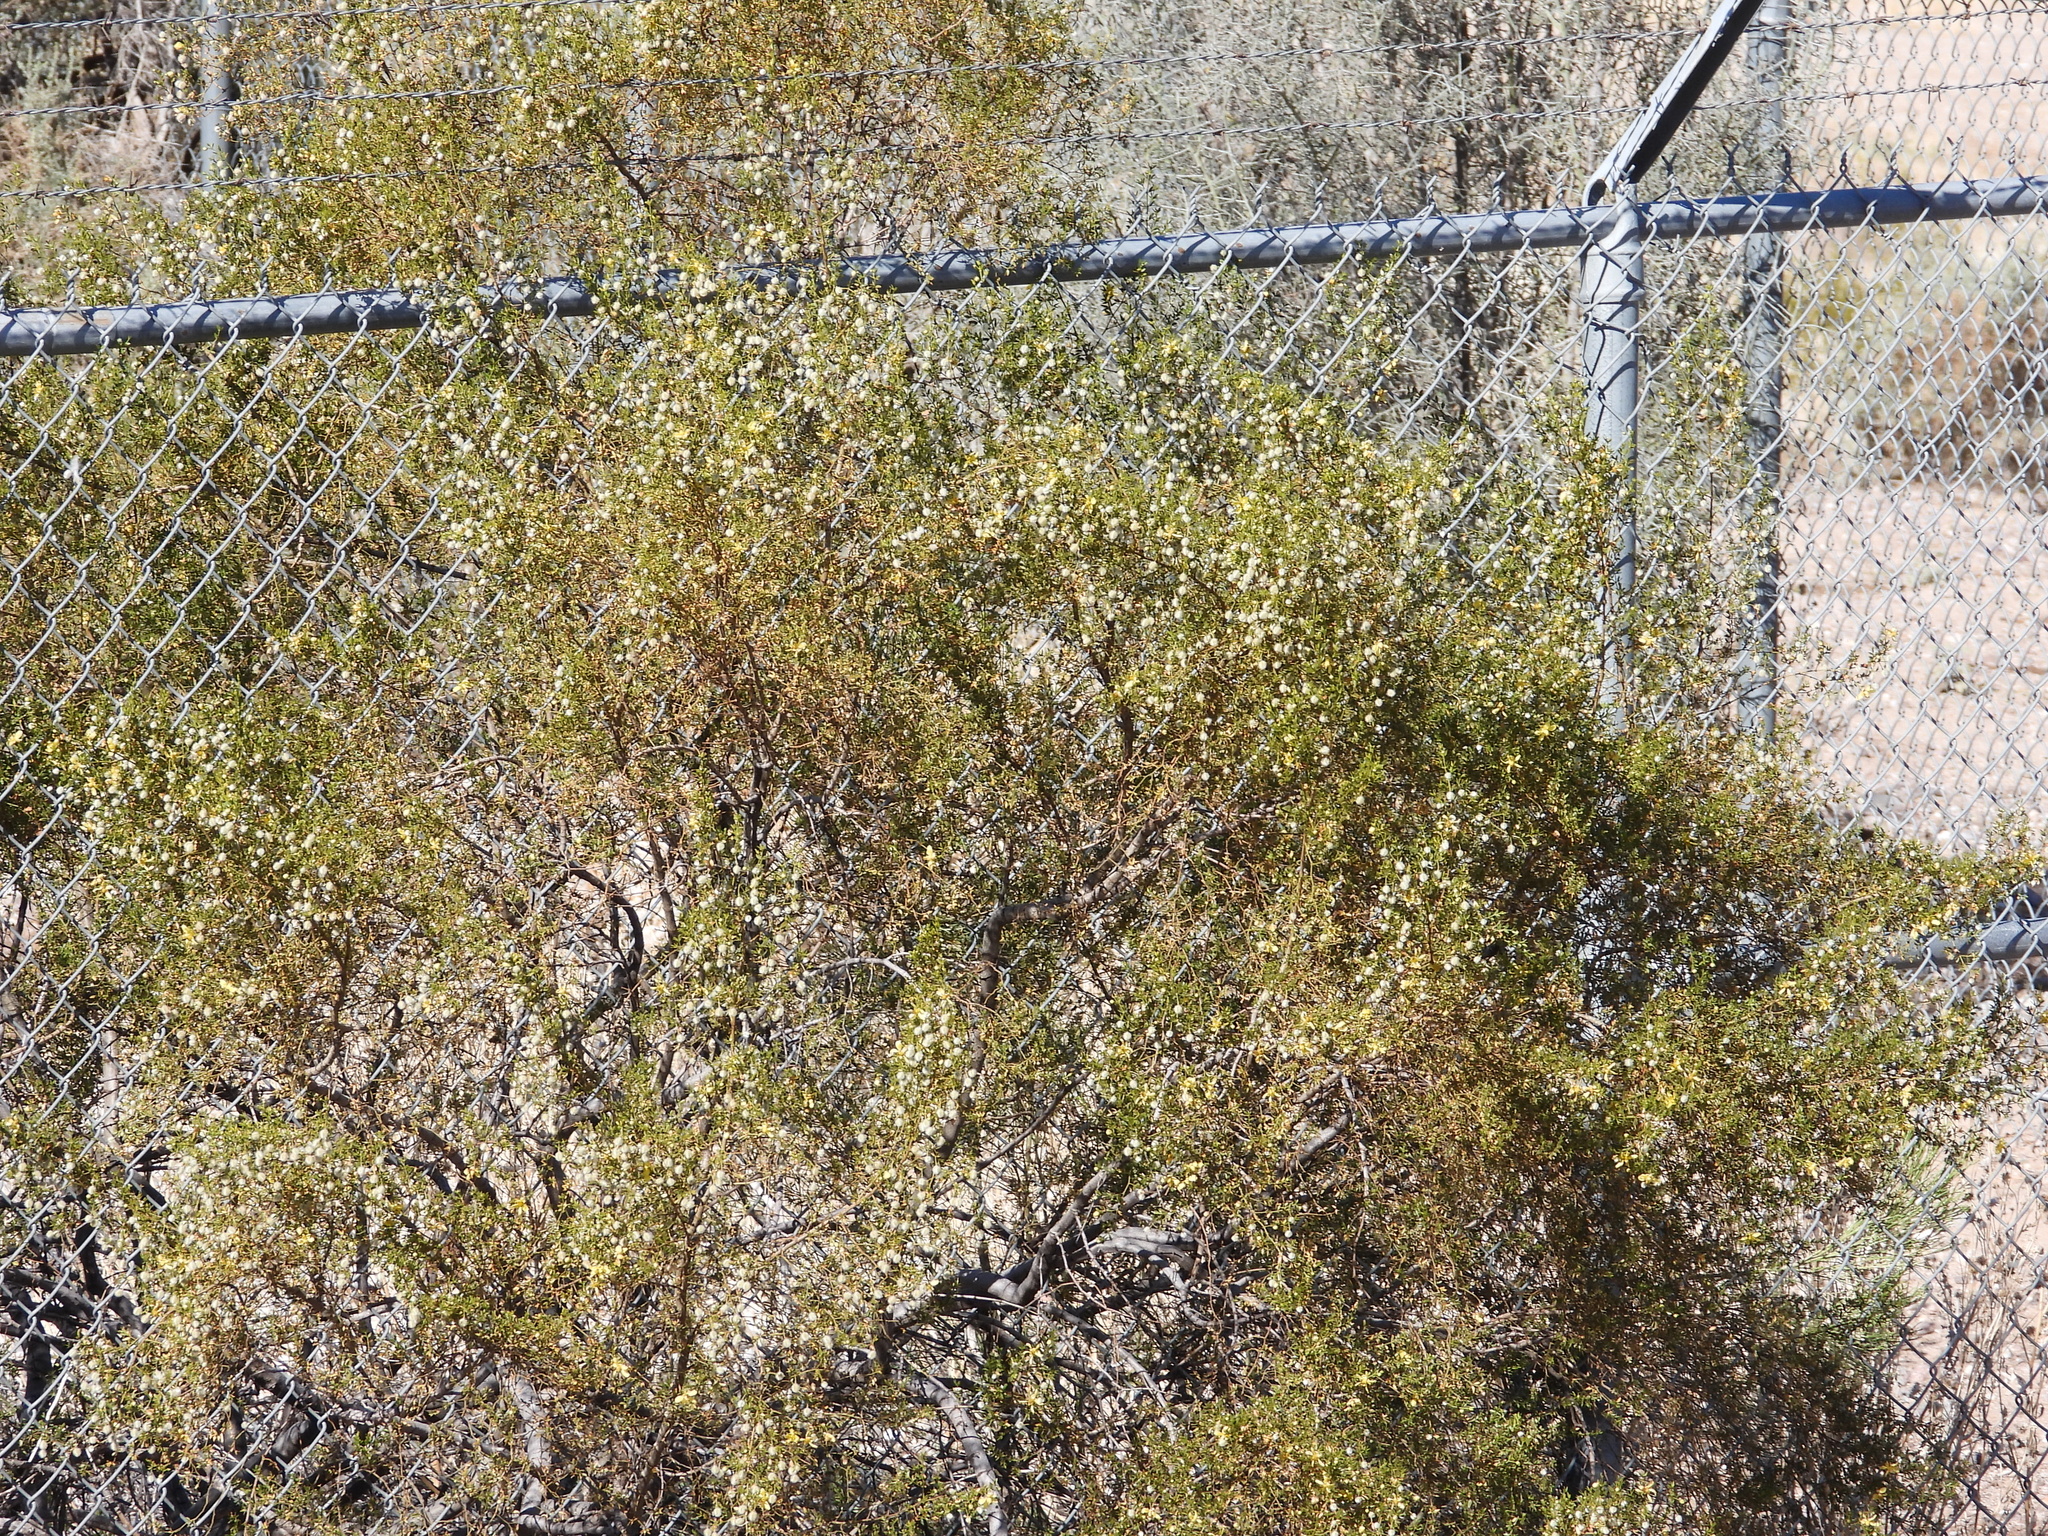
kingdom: Plantae
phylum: Tracheophyta
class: Magnoliopsida
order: Zygophyllales
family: Zygophyllaceae
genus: Larrea
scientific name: Larrea tridentata
